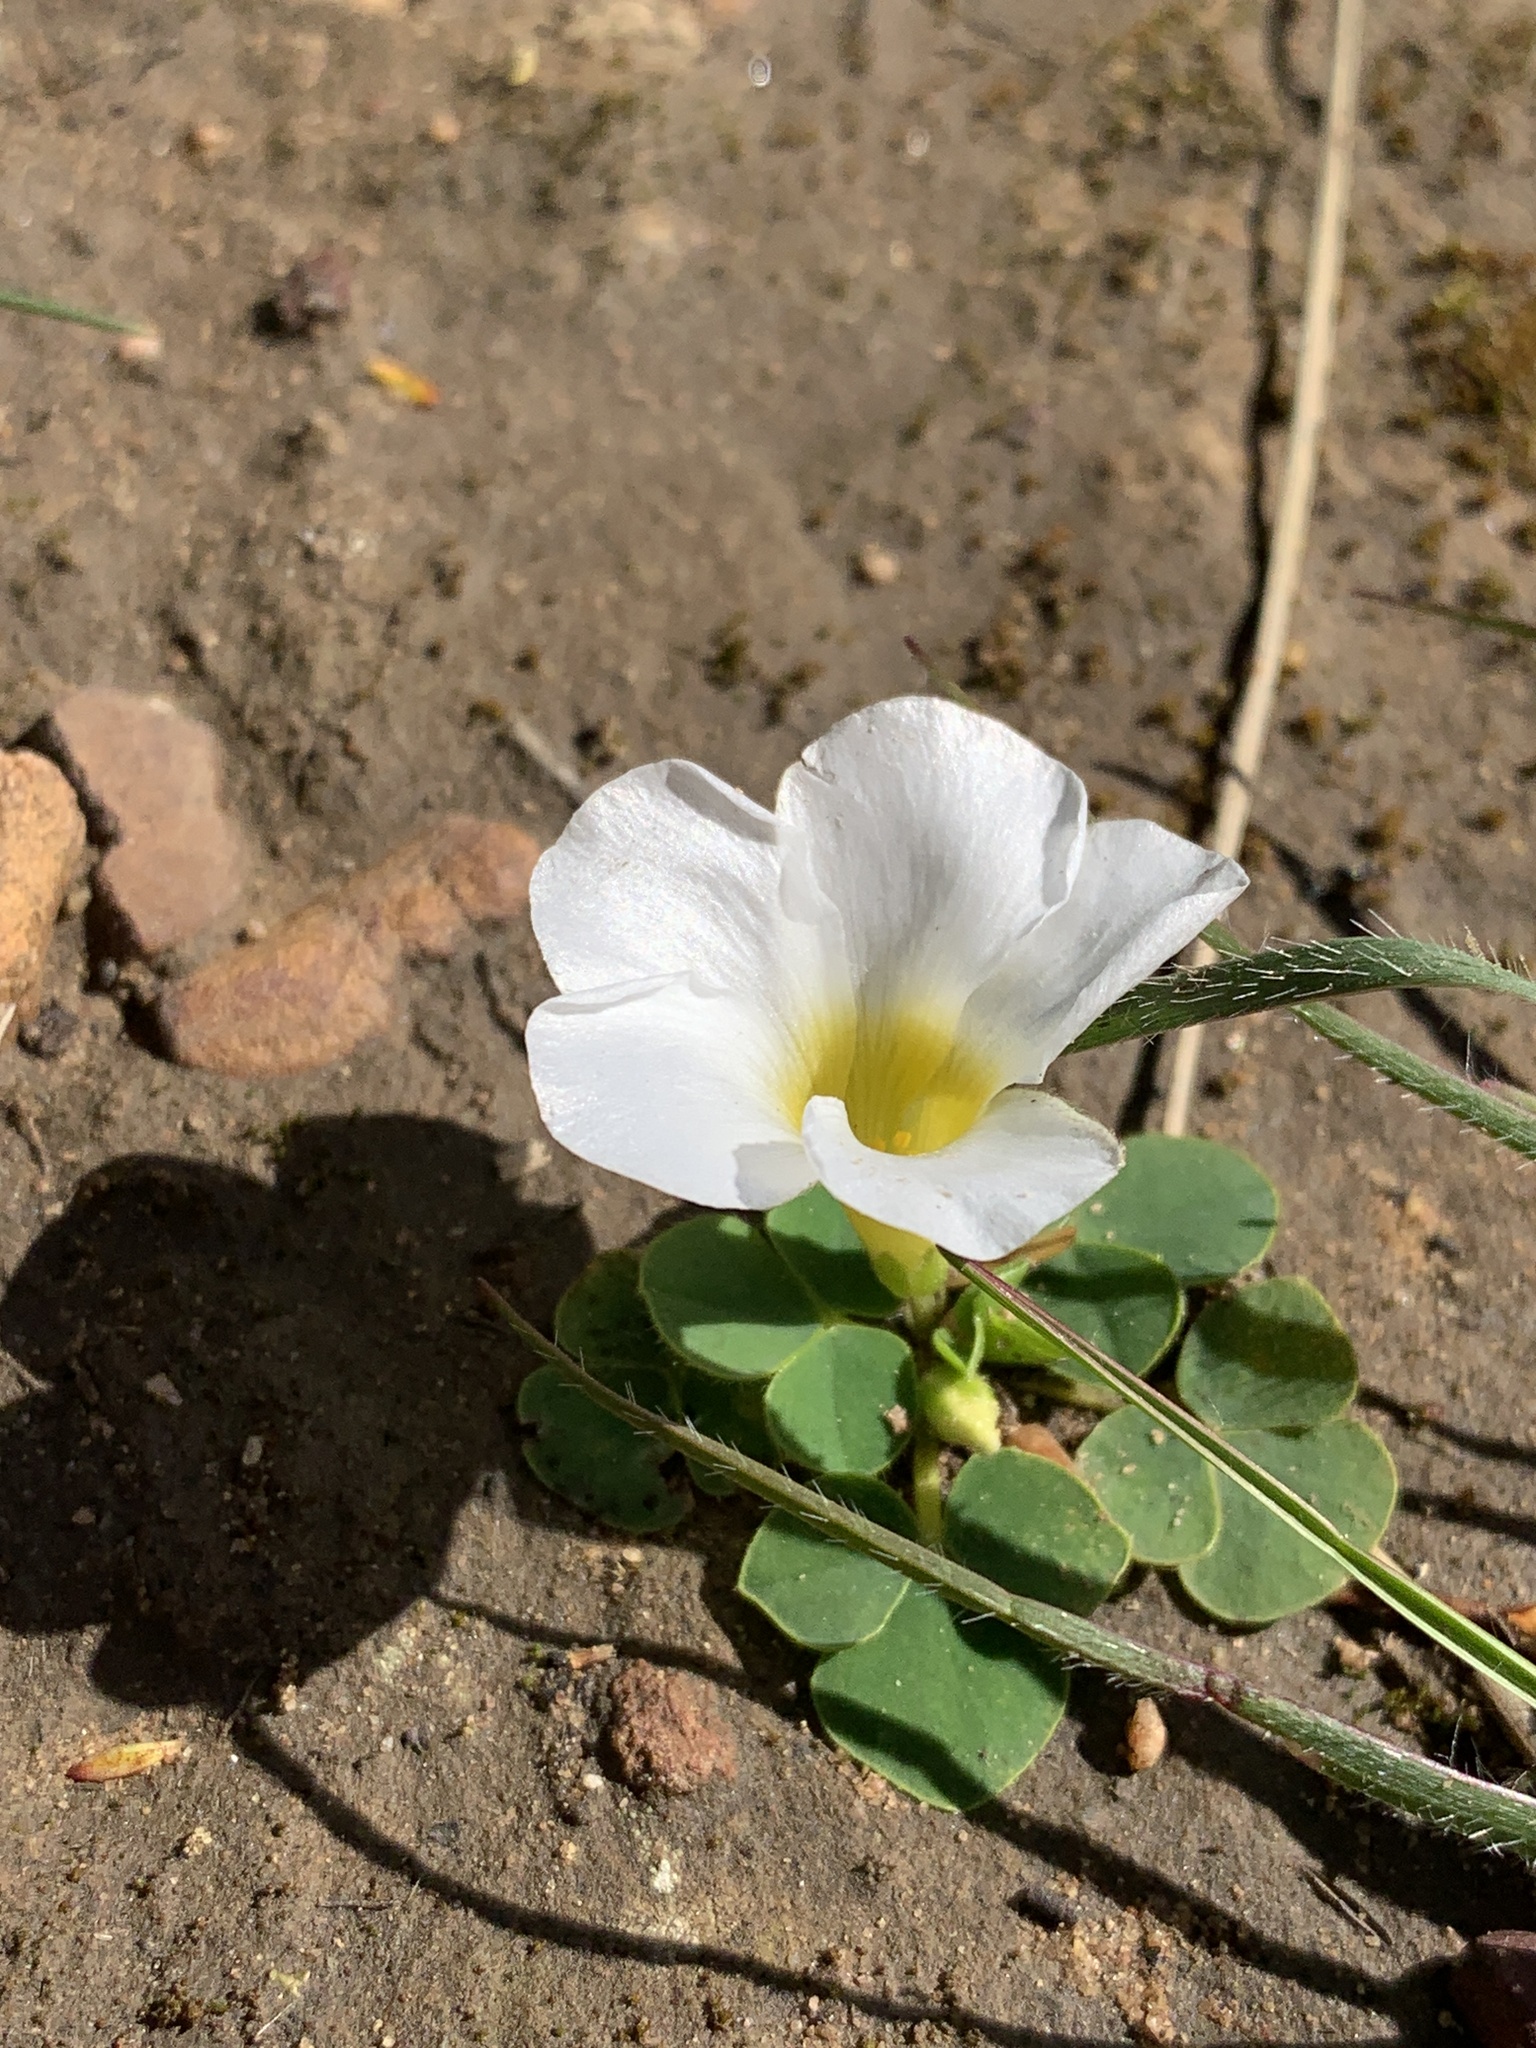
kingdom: Plantae
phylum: Tracheophyta
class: Magnoliopsida
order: Oxalidales
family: Oxalidaceae
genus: Oxalis
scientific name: Oxalis purpurea
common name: Purple woodsorrel
